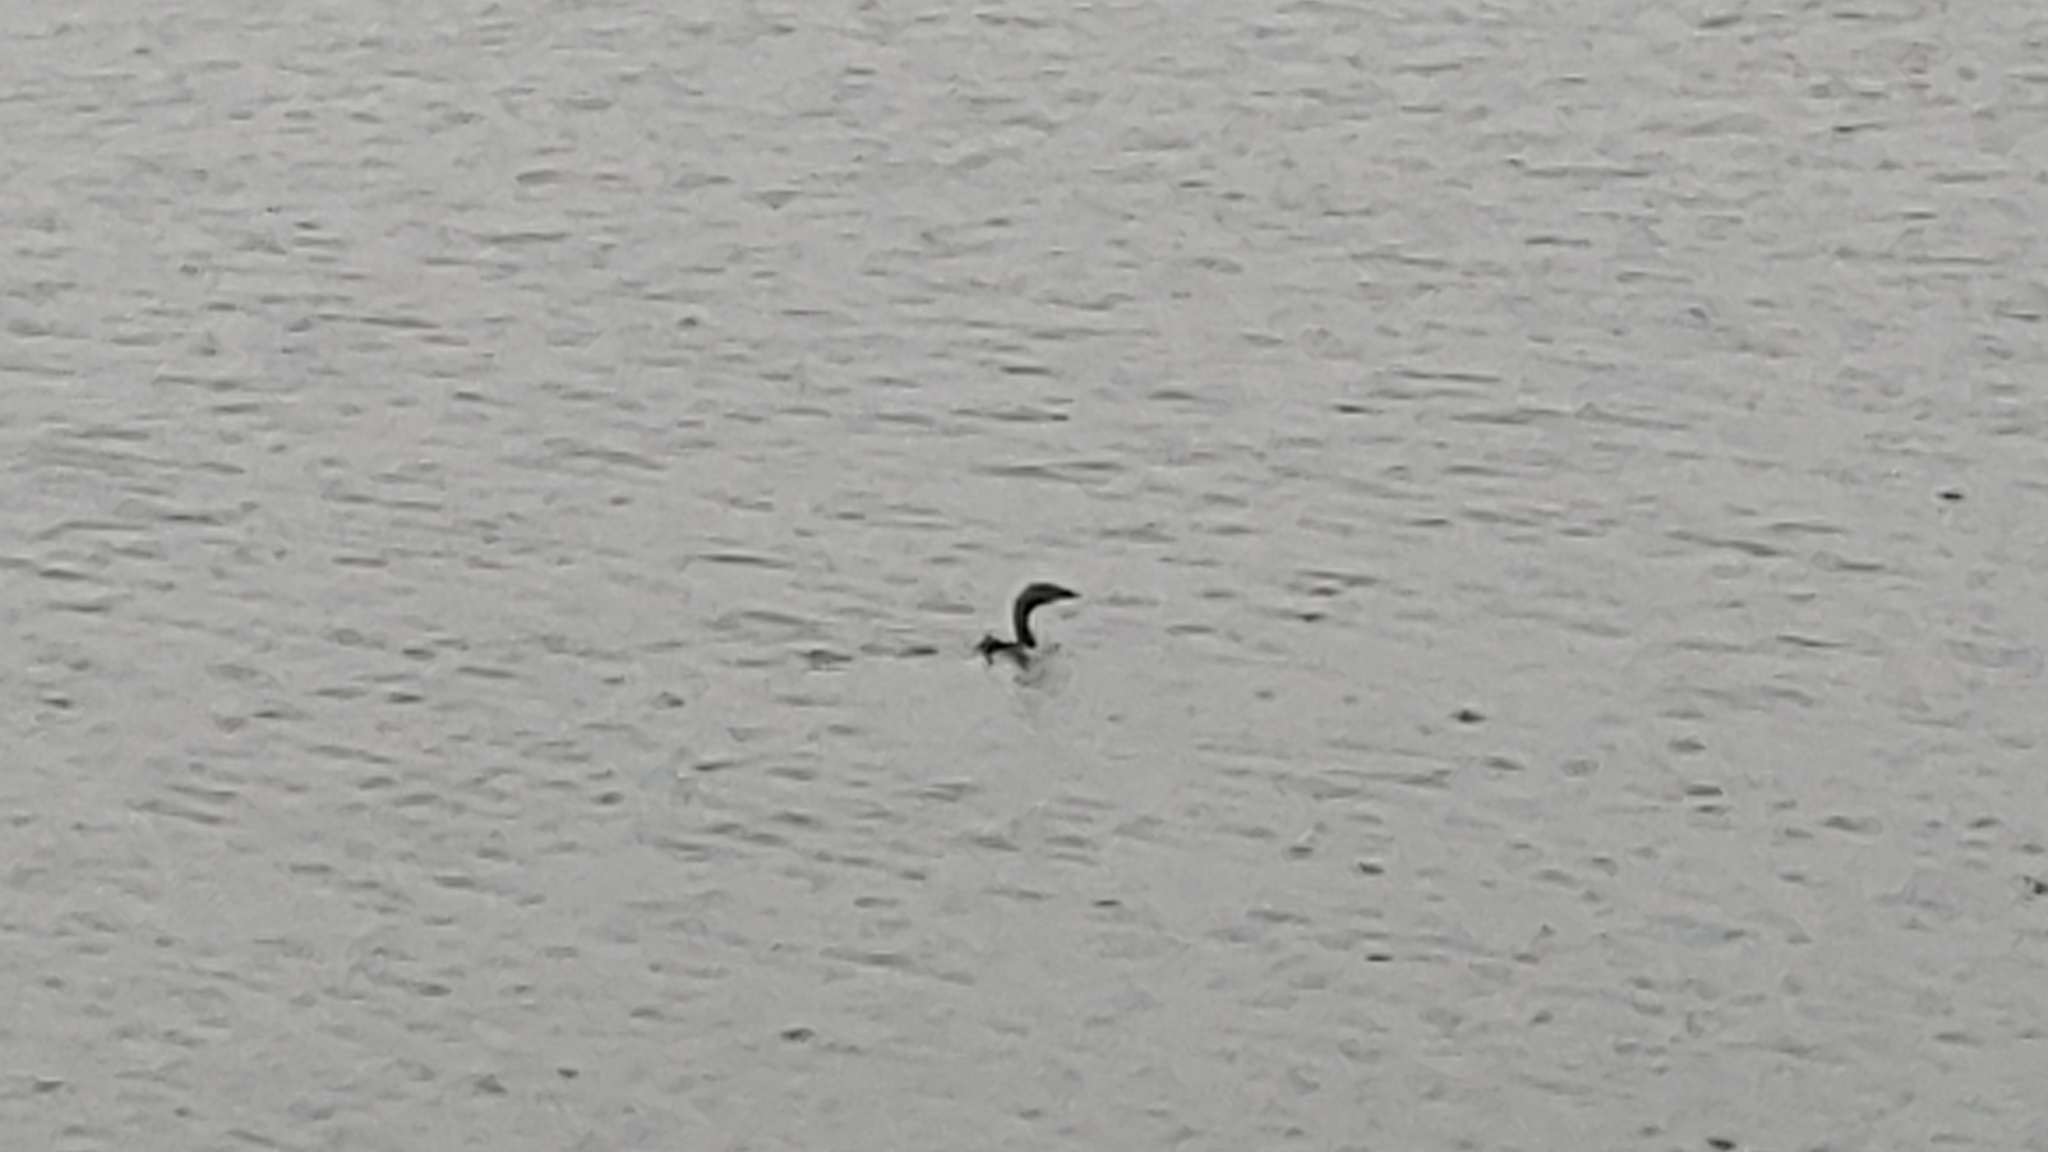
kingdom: Animalia
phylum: Chordata
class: Aves
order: Podicipediformes
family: Podicipedidae
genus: Podilymbus
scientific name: Podilymbus podiceps
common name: Pied-billed grebe
